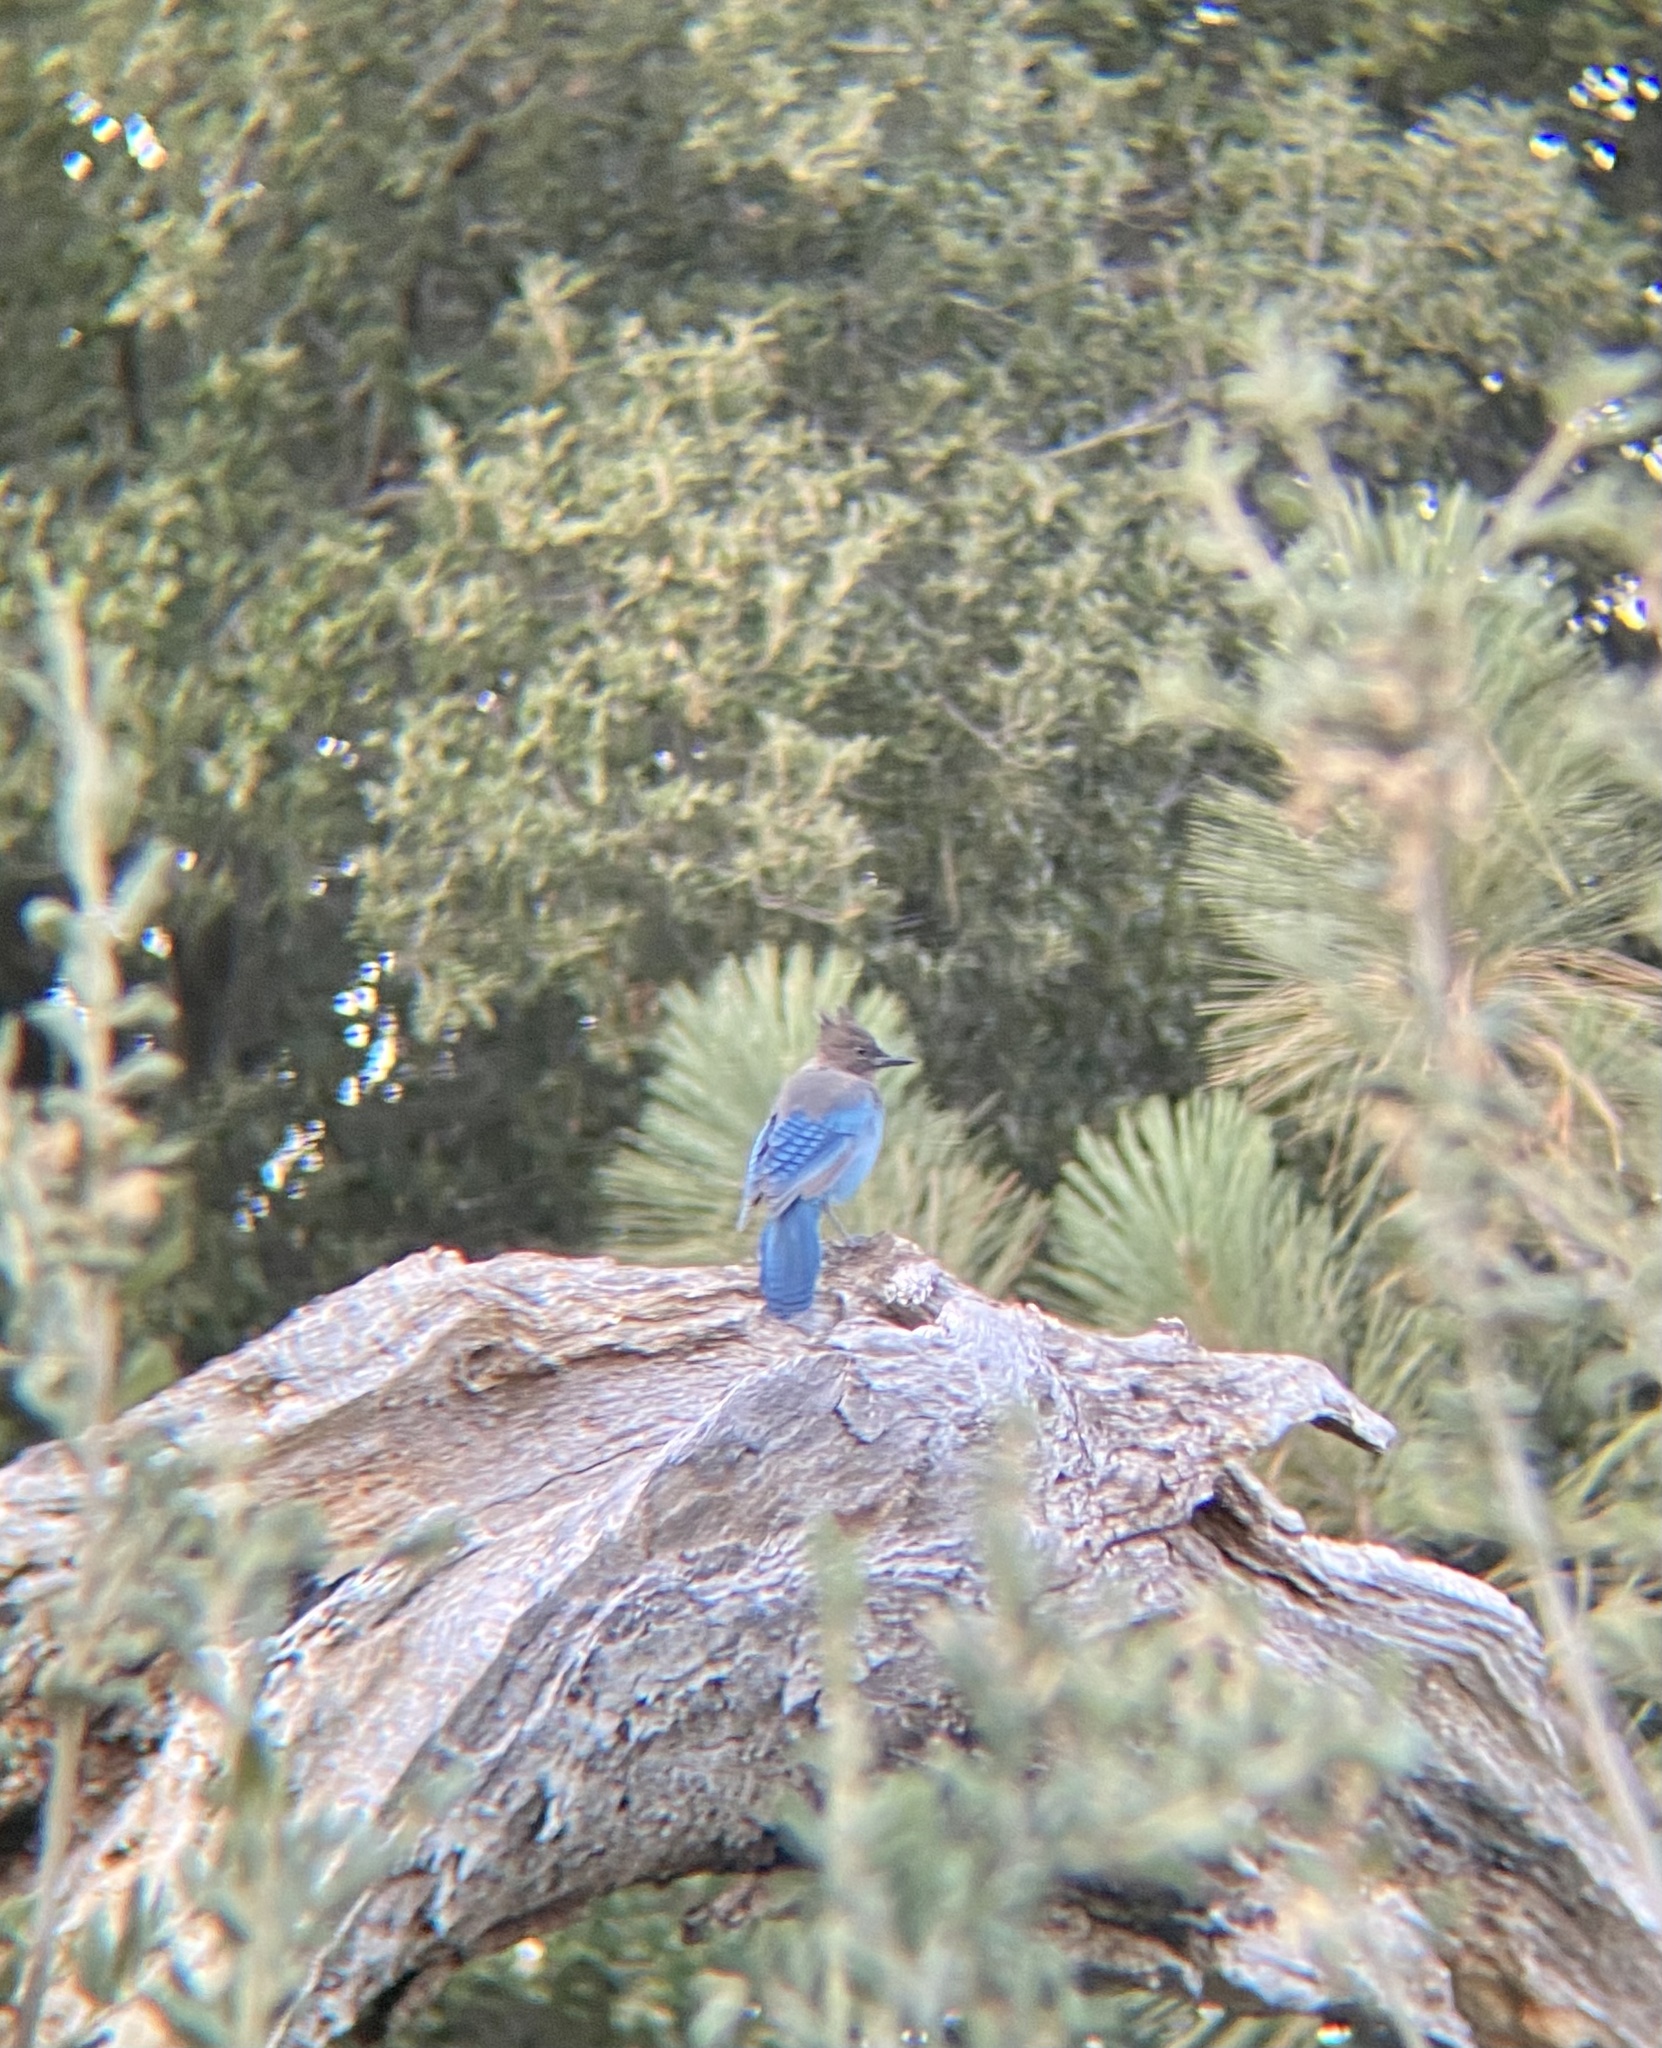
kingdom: Animalia
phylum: Chordata
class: Aves
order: Passeriformes
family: Corvidae
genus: Cyanocitta
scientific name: Cyanocitta stelleri
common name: Steller's jay
